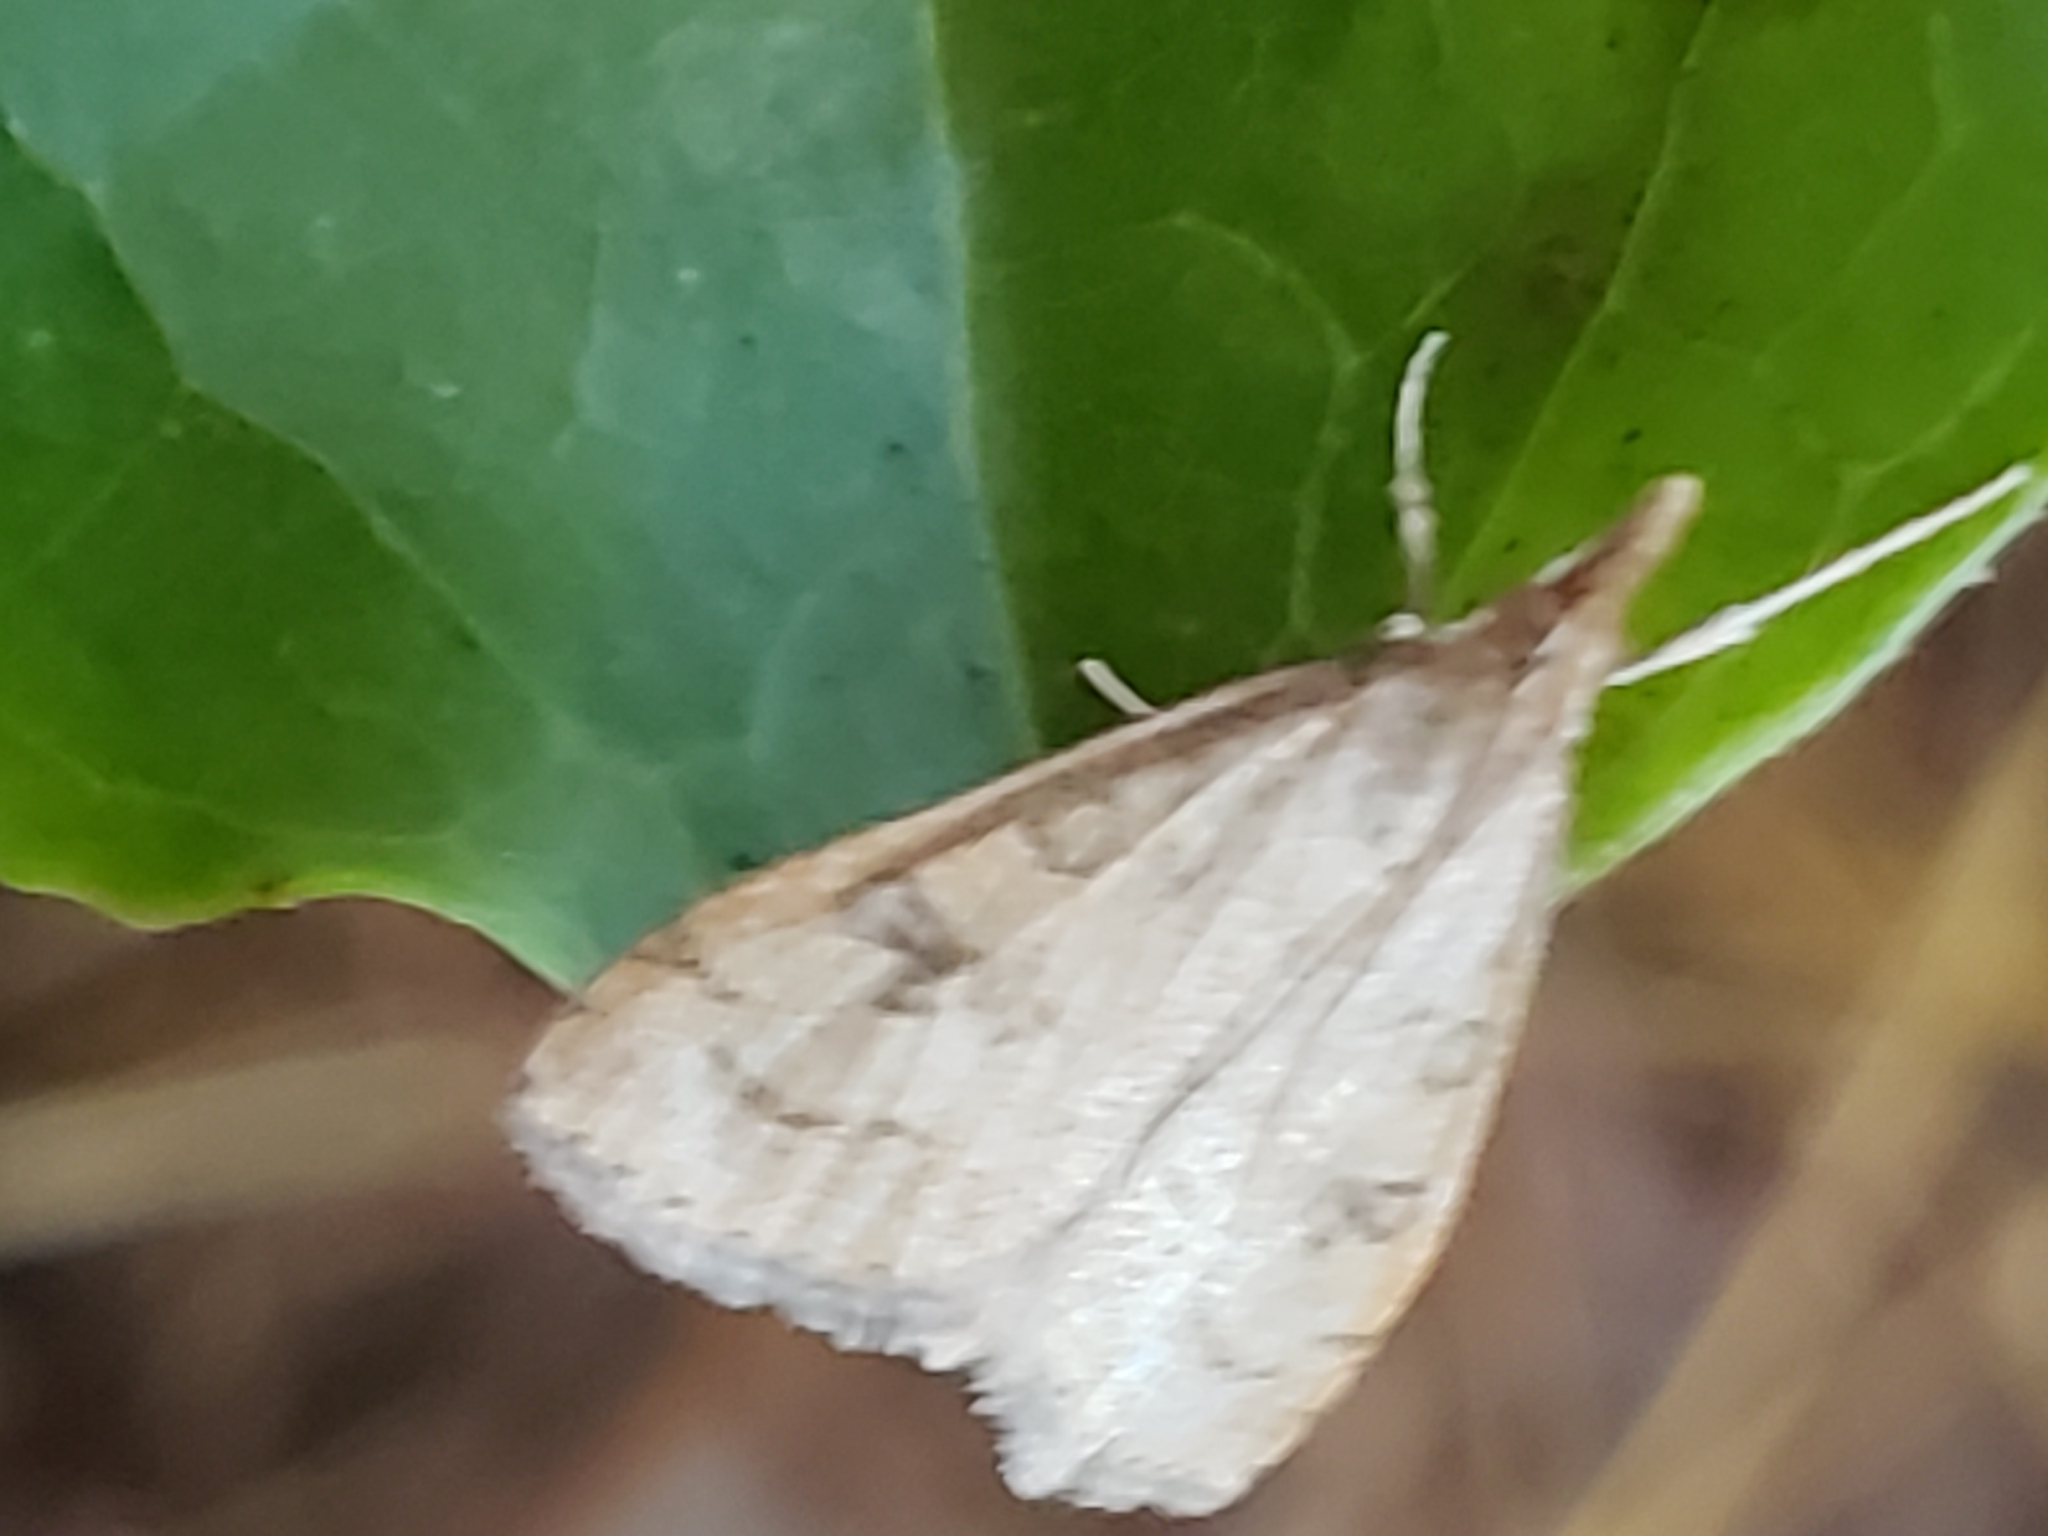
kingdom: Animalia
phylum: Arthropoda
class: Insecta
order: Lepidoptera
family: Crambidae
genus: Udea
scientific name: Udea rubigalis
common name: Celery leaftier moth
